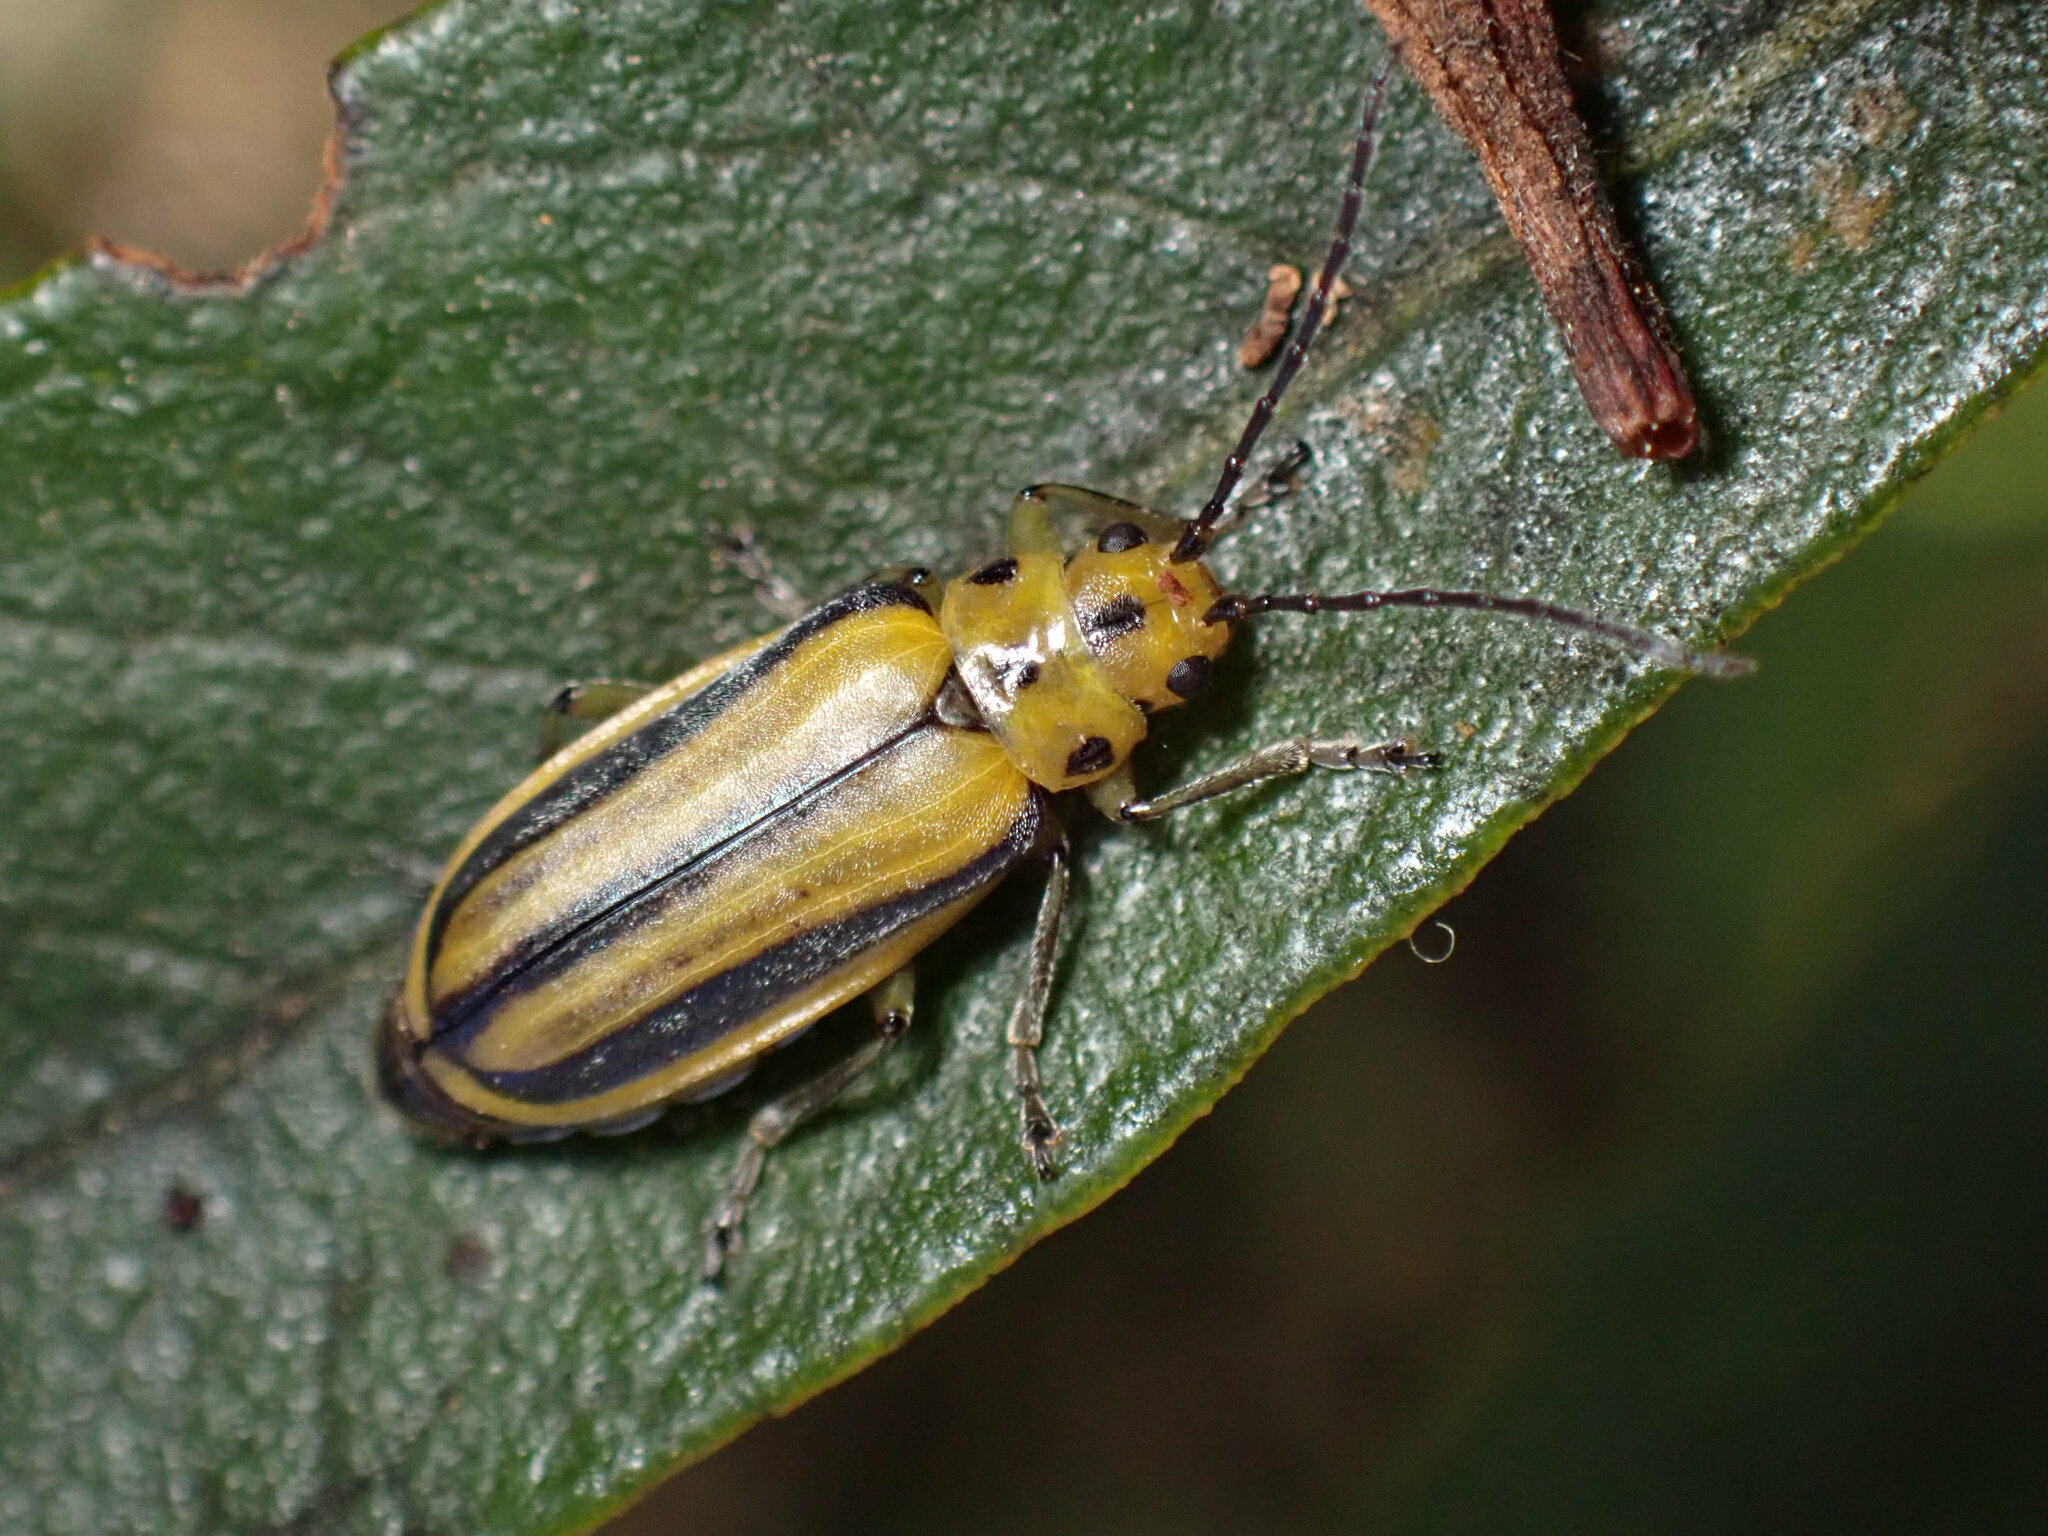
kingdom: Animalia
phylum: Arthropoda
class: Insecta
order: Coleoptera
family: Chrysomelidae
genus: Trirhabda
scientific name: Trirhabda eriodictyonis
